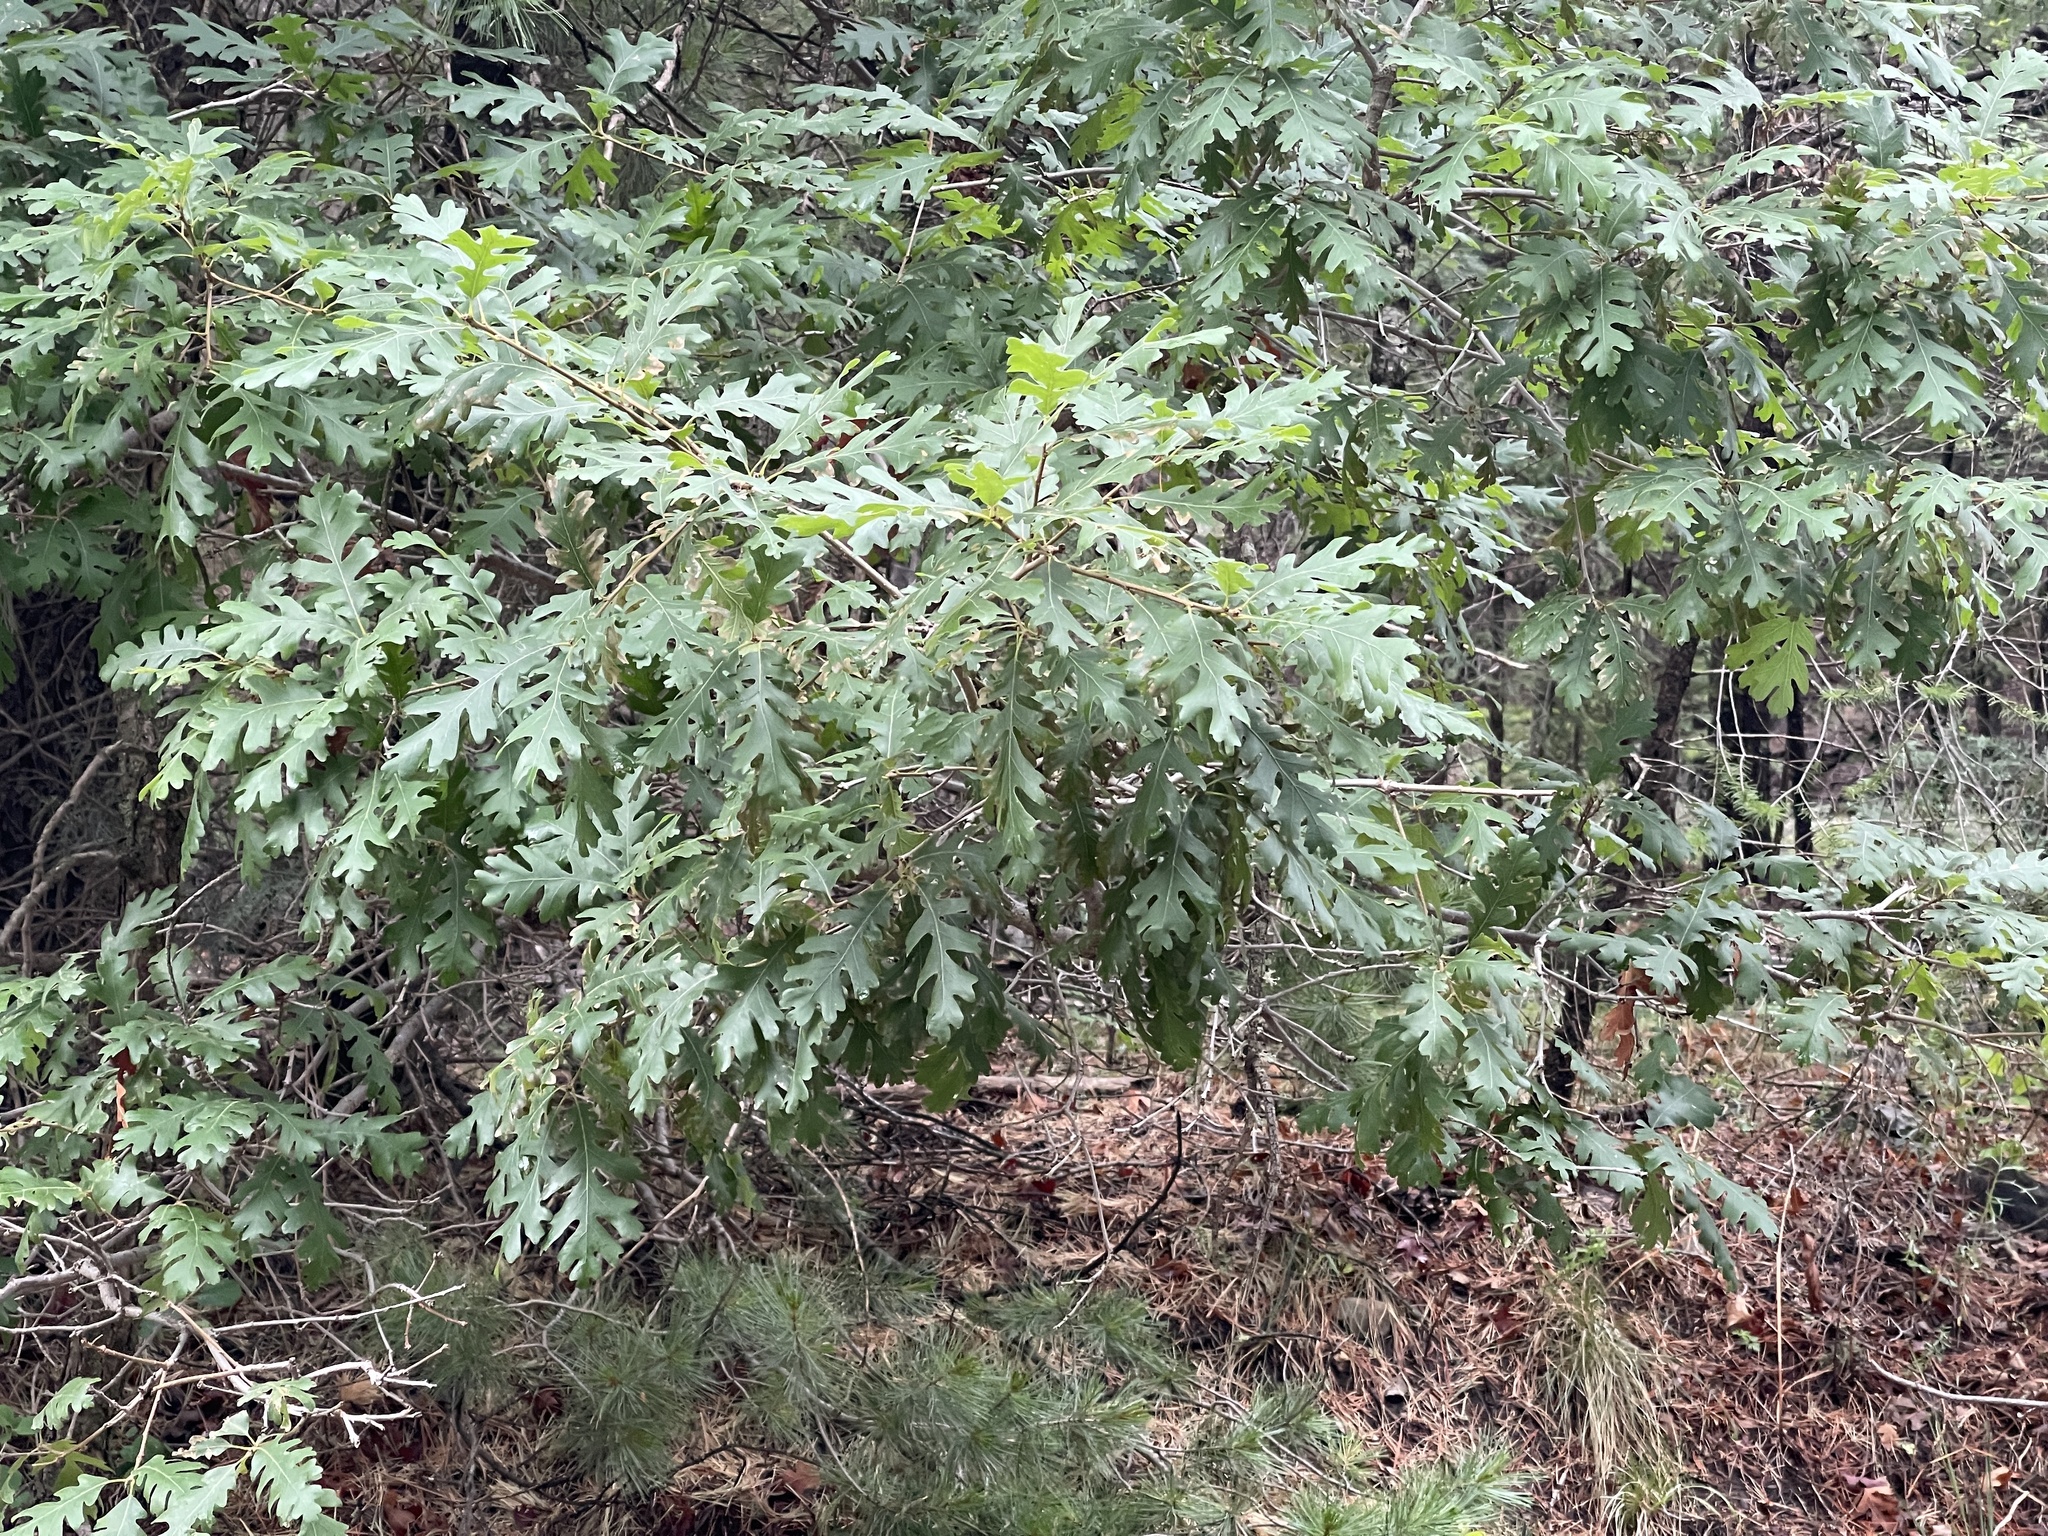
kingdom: Plantae
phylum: Tracheophyta
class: Magnoliopsida
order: Fagales
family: Fagaceae
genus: Quercus
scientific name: Quercus gambelii
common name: Gambel oak
